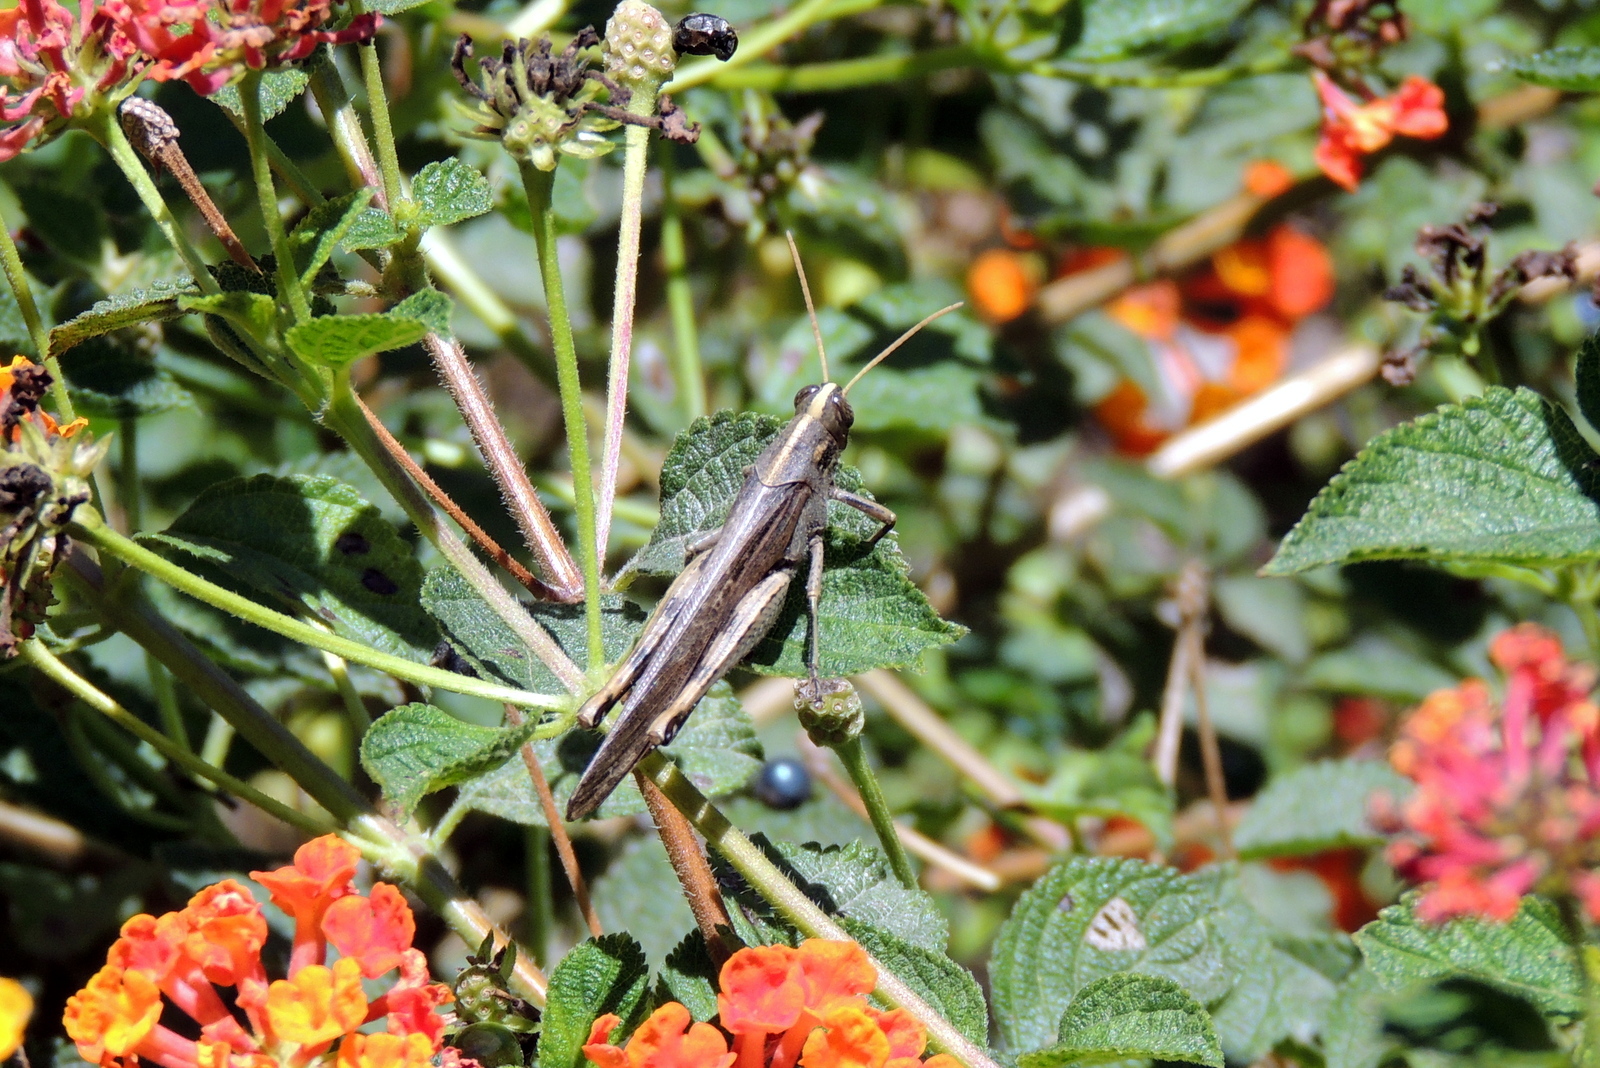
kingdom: Animalia
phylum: Arthropoda
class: Insecta
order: Orthoptera
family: Acrididae
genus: Schistocerca
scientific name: Schistocerca nitens
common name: Vagrant grasshopper
